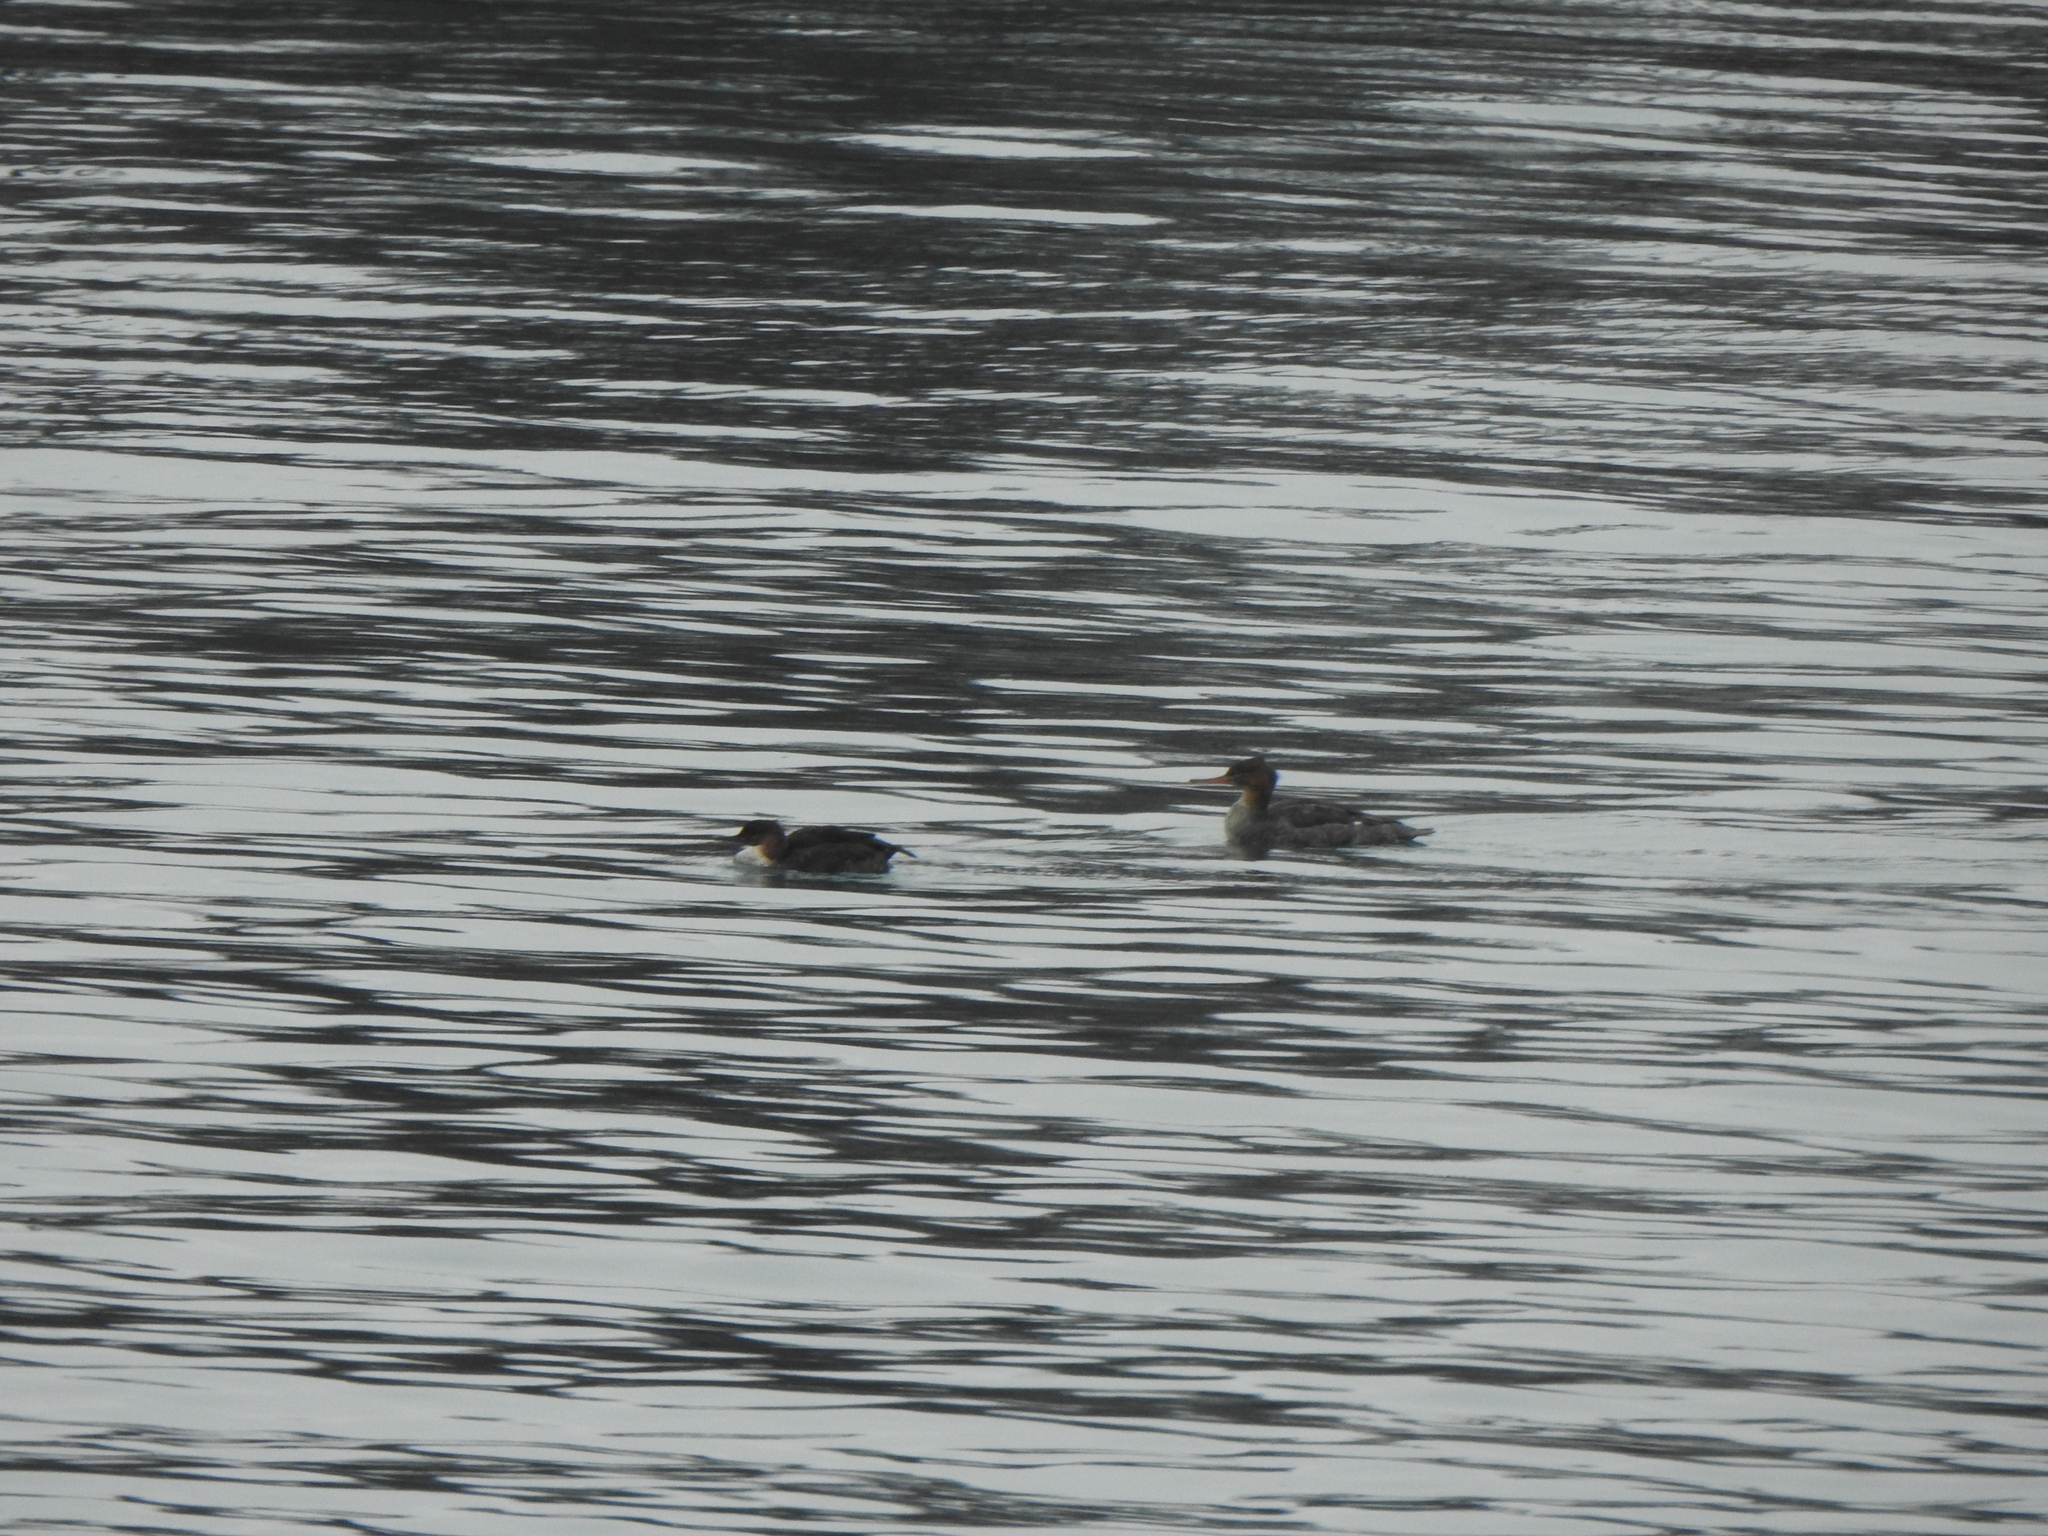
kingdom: Animalia
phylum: Chordata
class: Aves
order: Anseriformes
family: Anatidae
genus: Mergus
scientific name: Mergus serrator
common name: Red-breasted merganser
